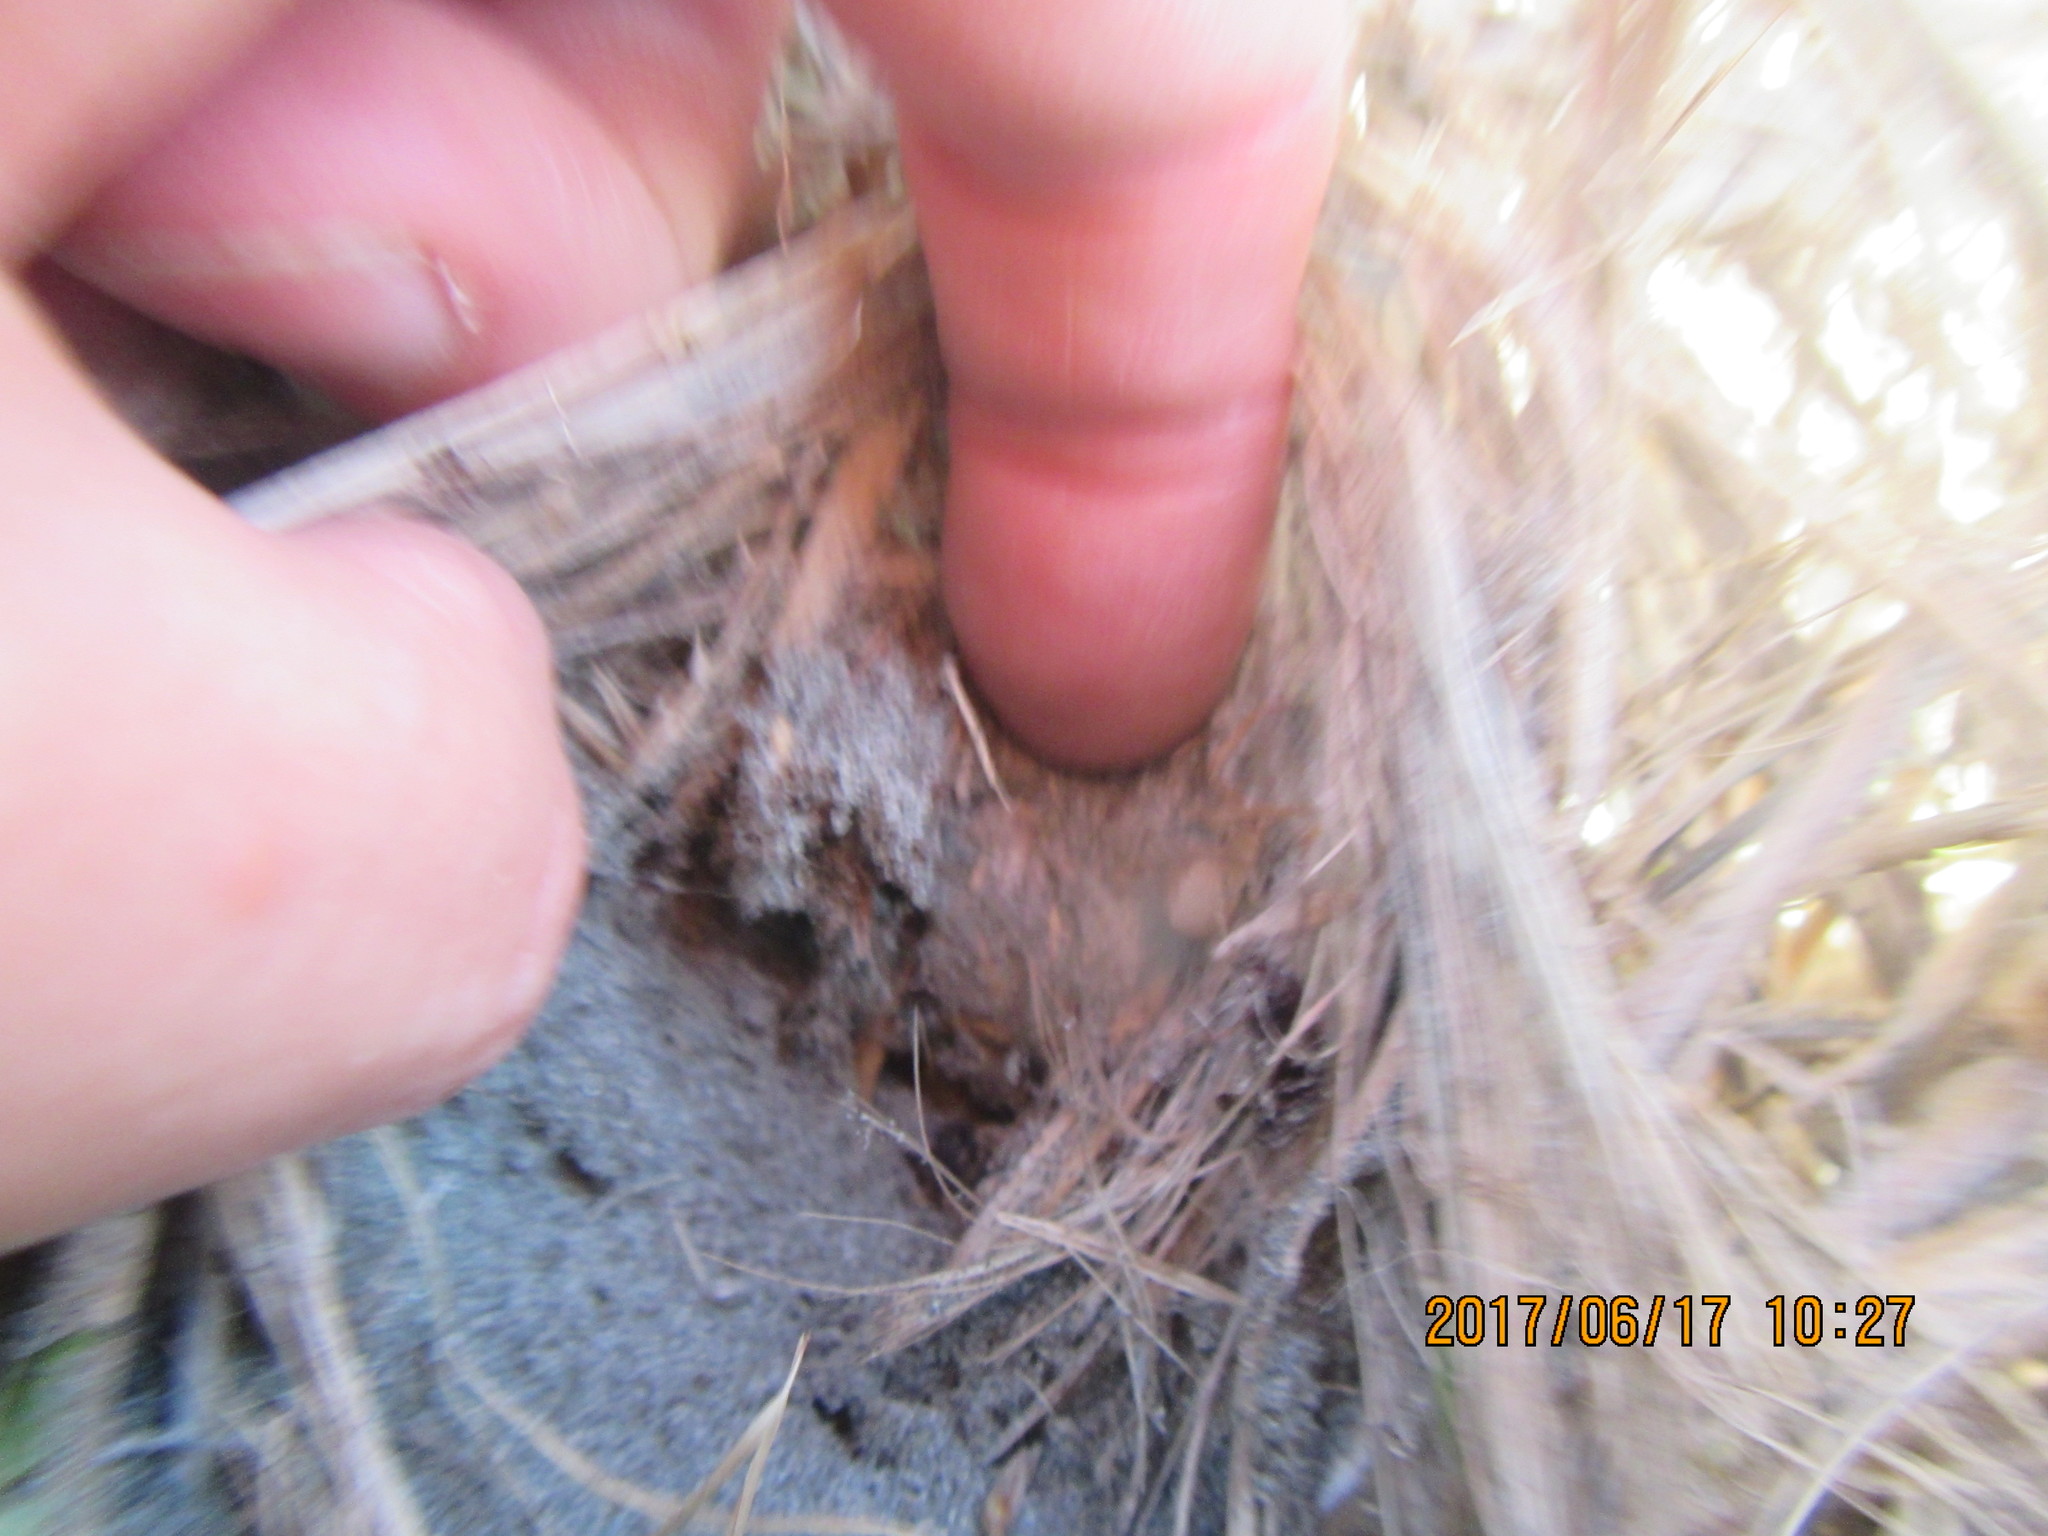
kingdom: Animalia
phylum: Arthropoda
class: Arachnida
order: Araneae
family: Thomisidae
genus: Sidymella
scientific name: Sidymella trapezia
